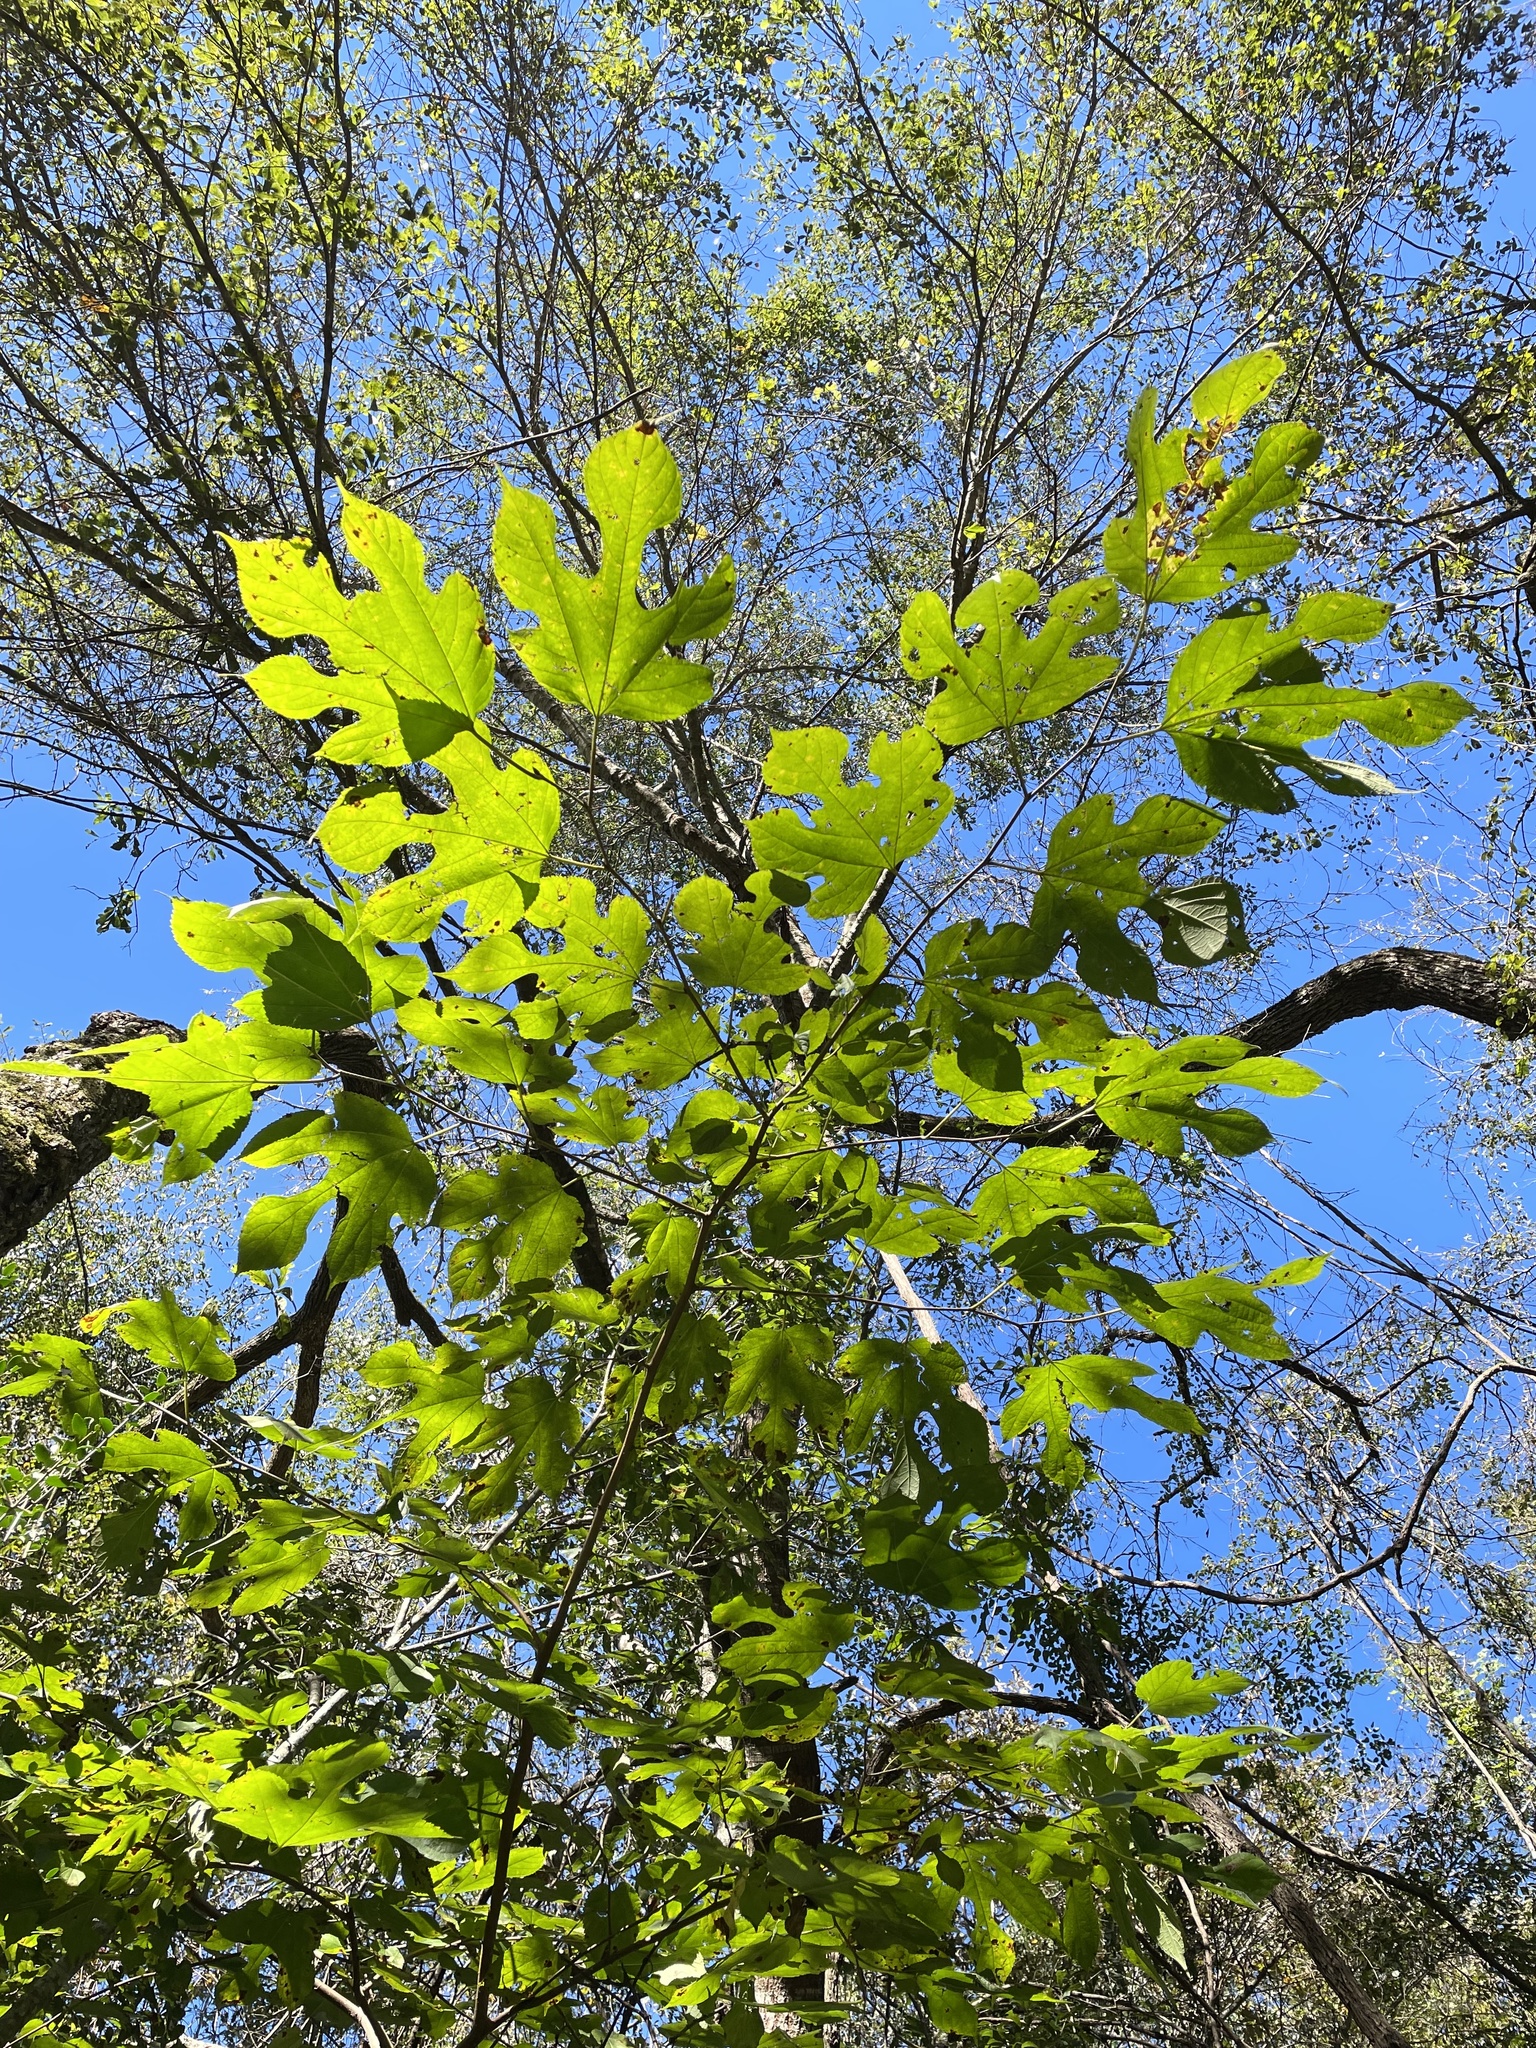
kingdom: Plantae
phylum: Tracheophyta
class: Magnoliopsida
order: Rosales
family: Moraceae
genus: Morus
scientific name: Morus rubra
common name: Red mulberry
